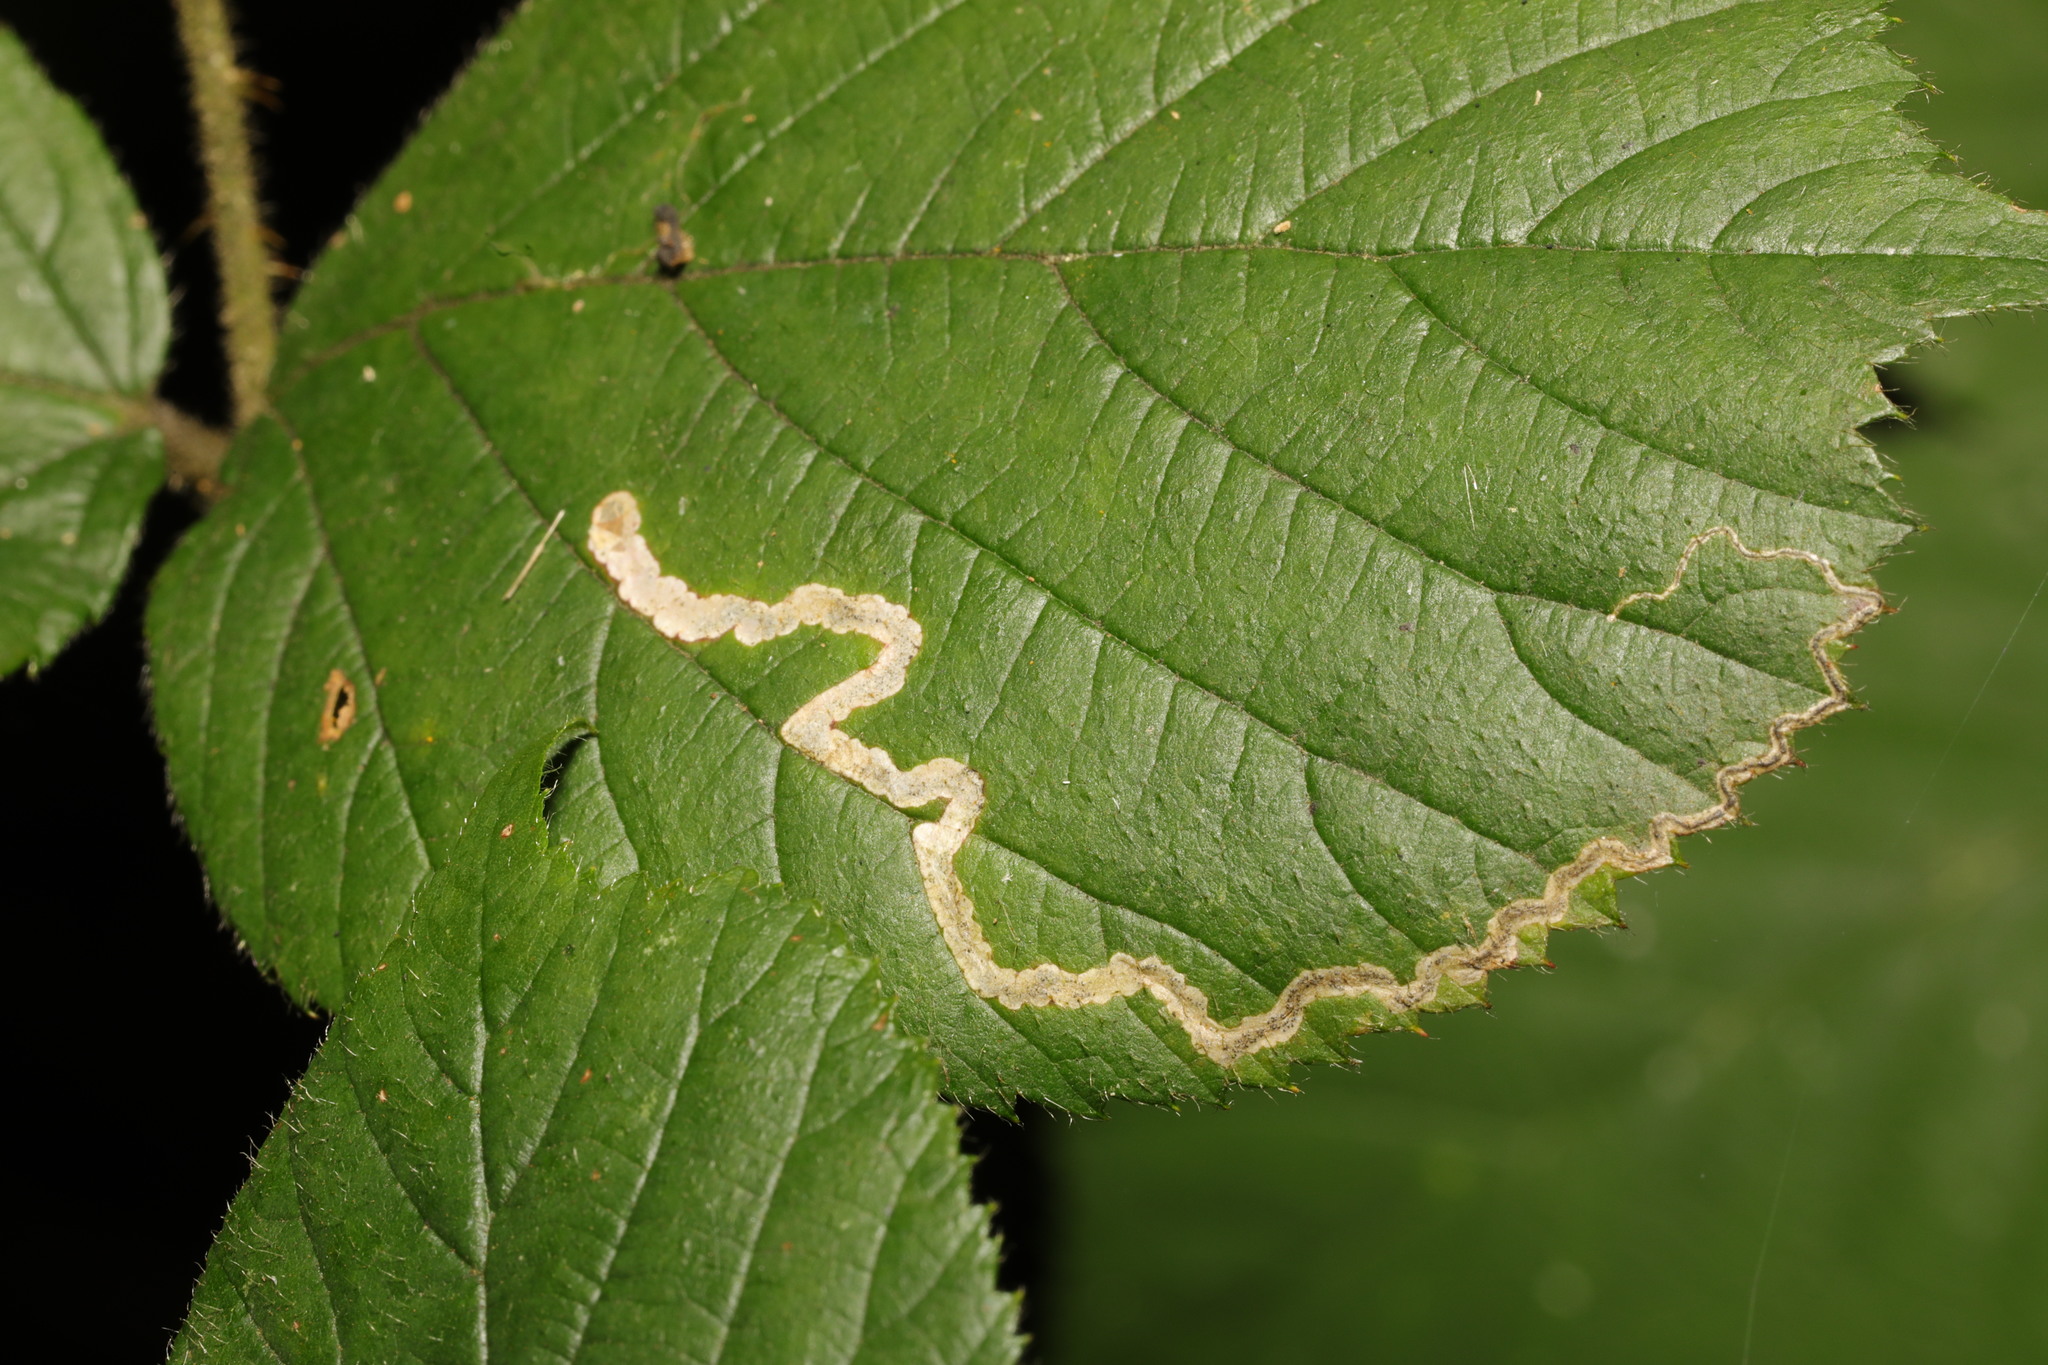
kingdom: Animalia
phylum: Arthropoda
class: Insecta
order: Lepidoptera
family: Nepticulidae
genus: Stigmella
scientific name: Stigmella aurella
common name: Golden pigmy
